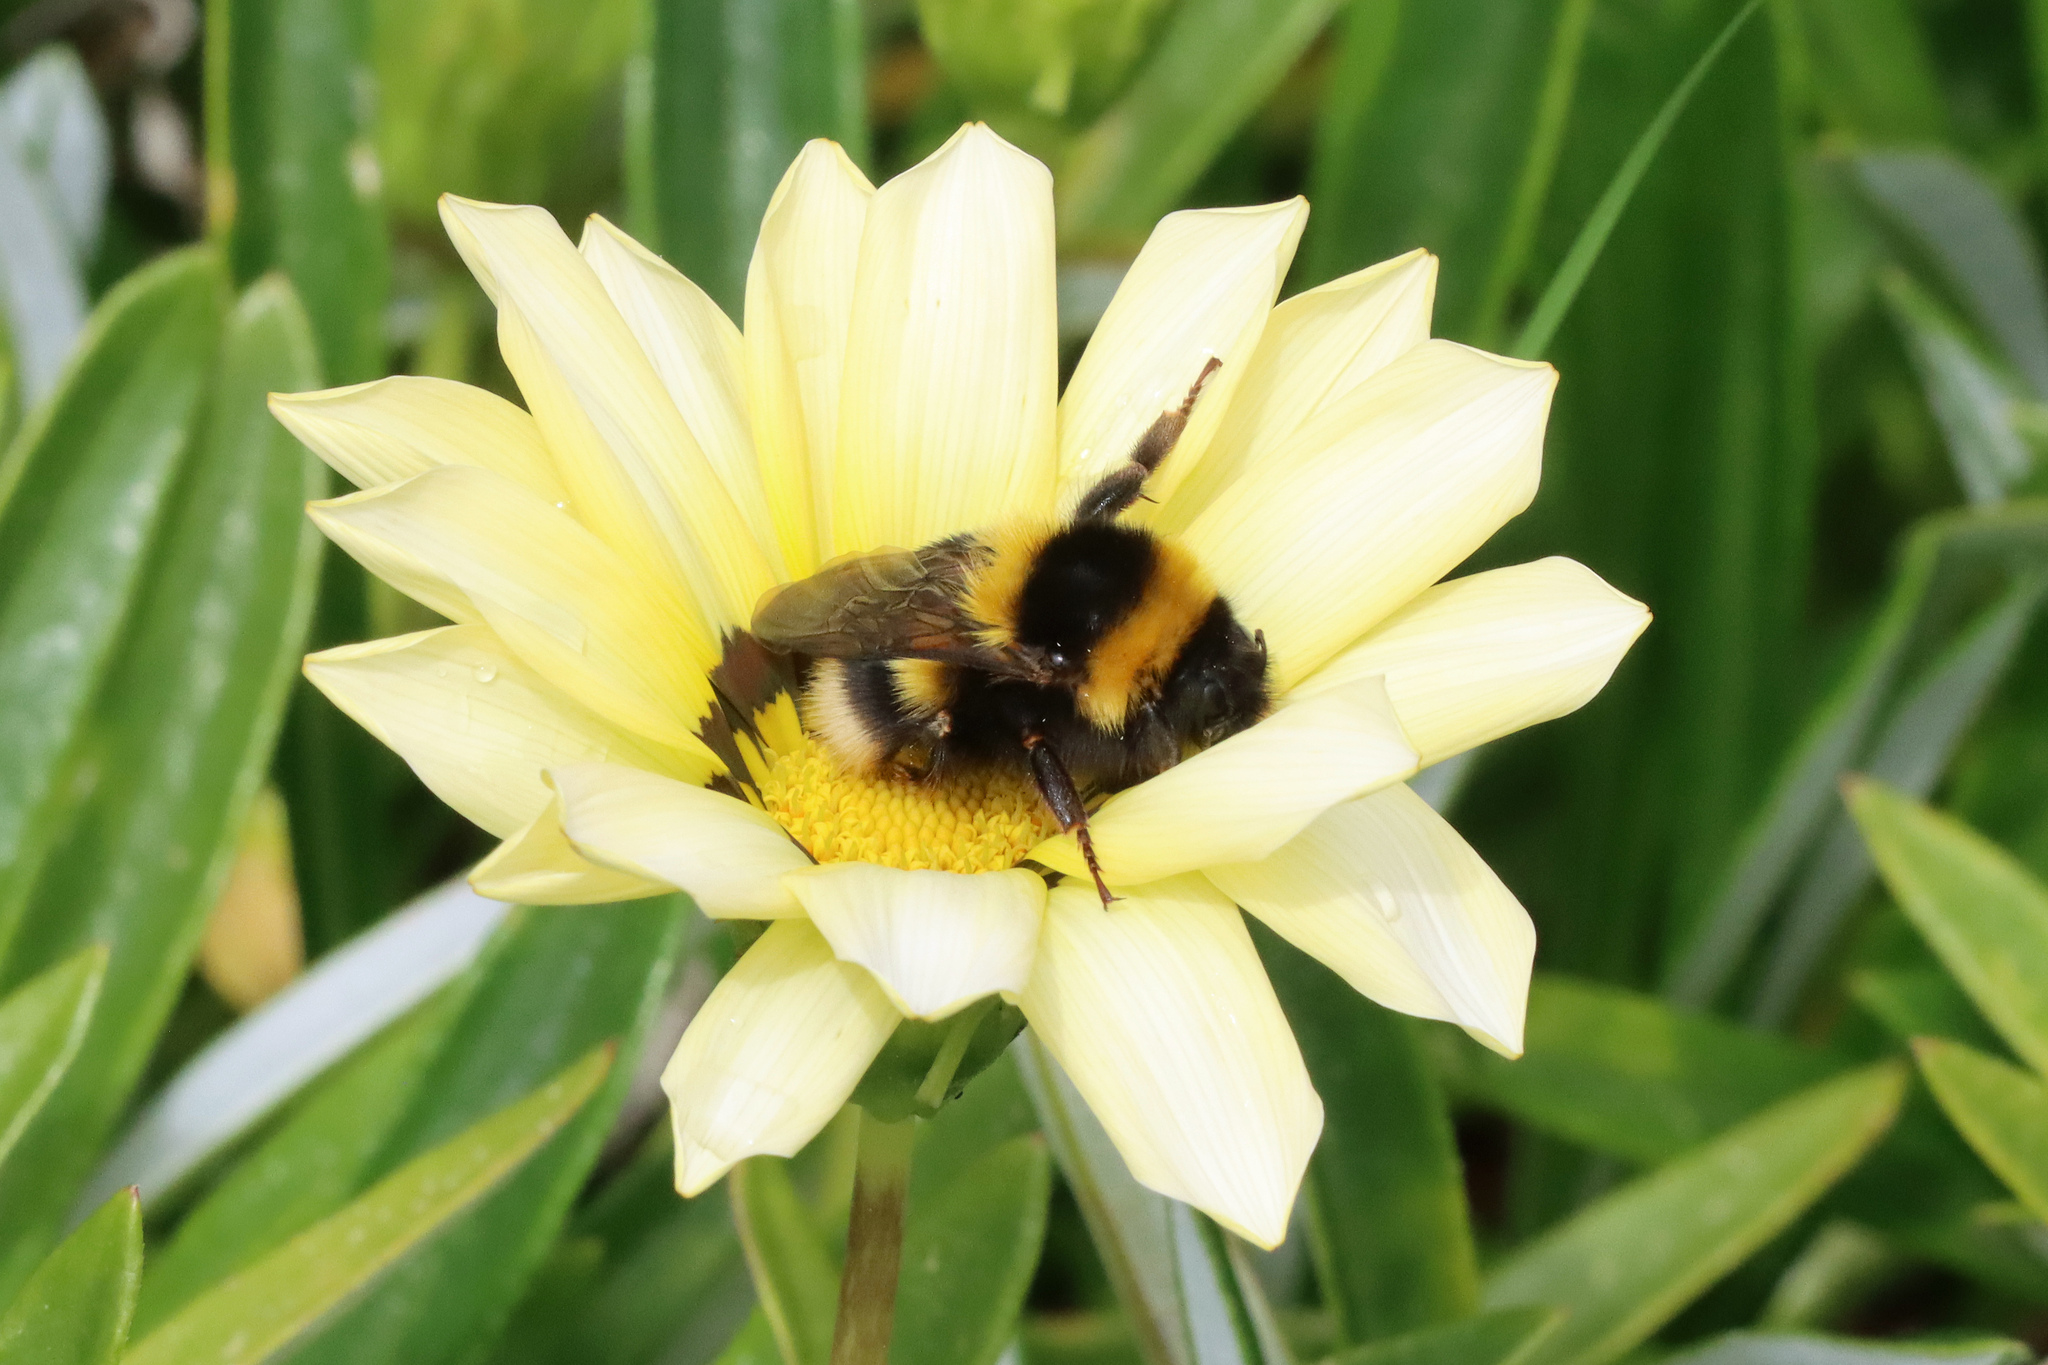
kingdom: Animalia
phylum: Arthropoda
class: Insecta
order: Hymenoptera
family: Apidae
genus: Bombus
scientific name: Bombus ruderatus
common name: Large garden bumblebee
